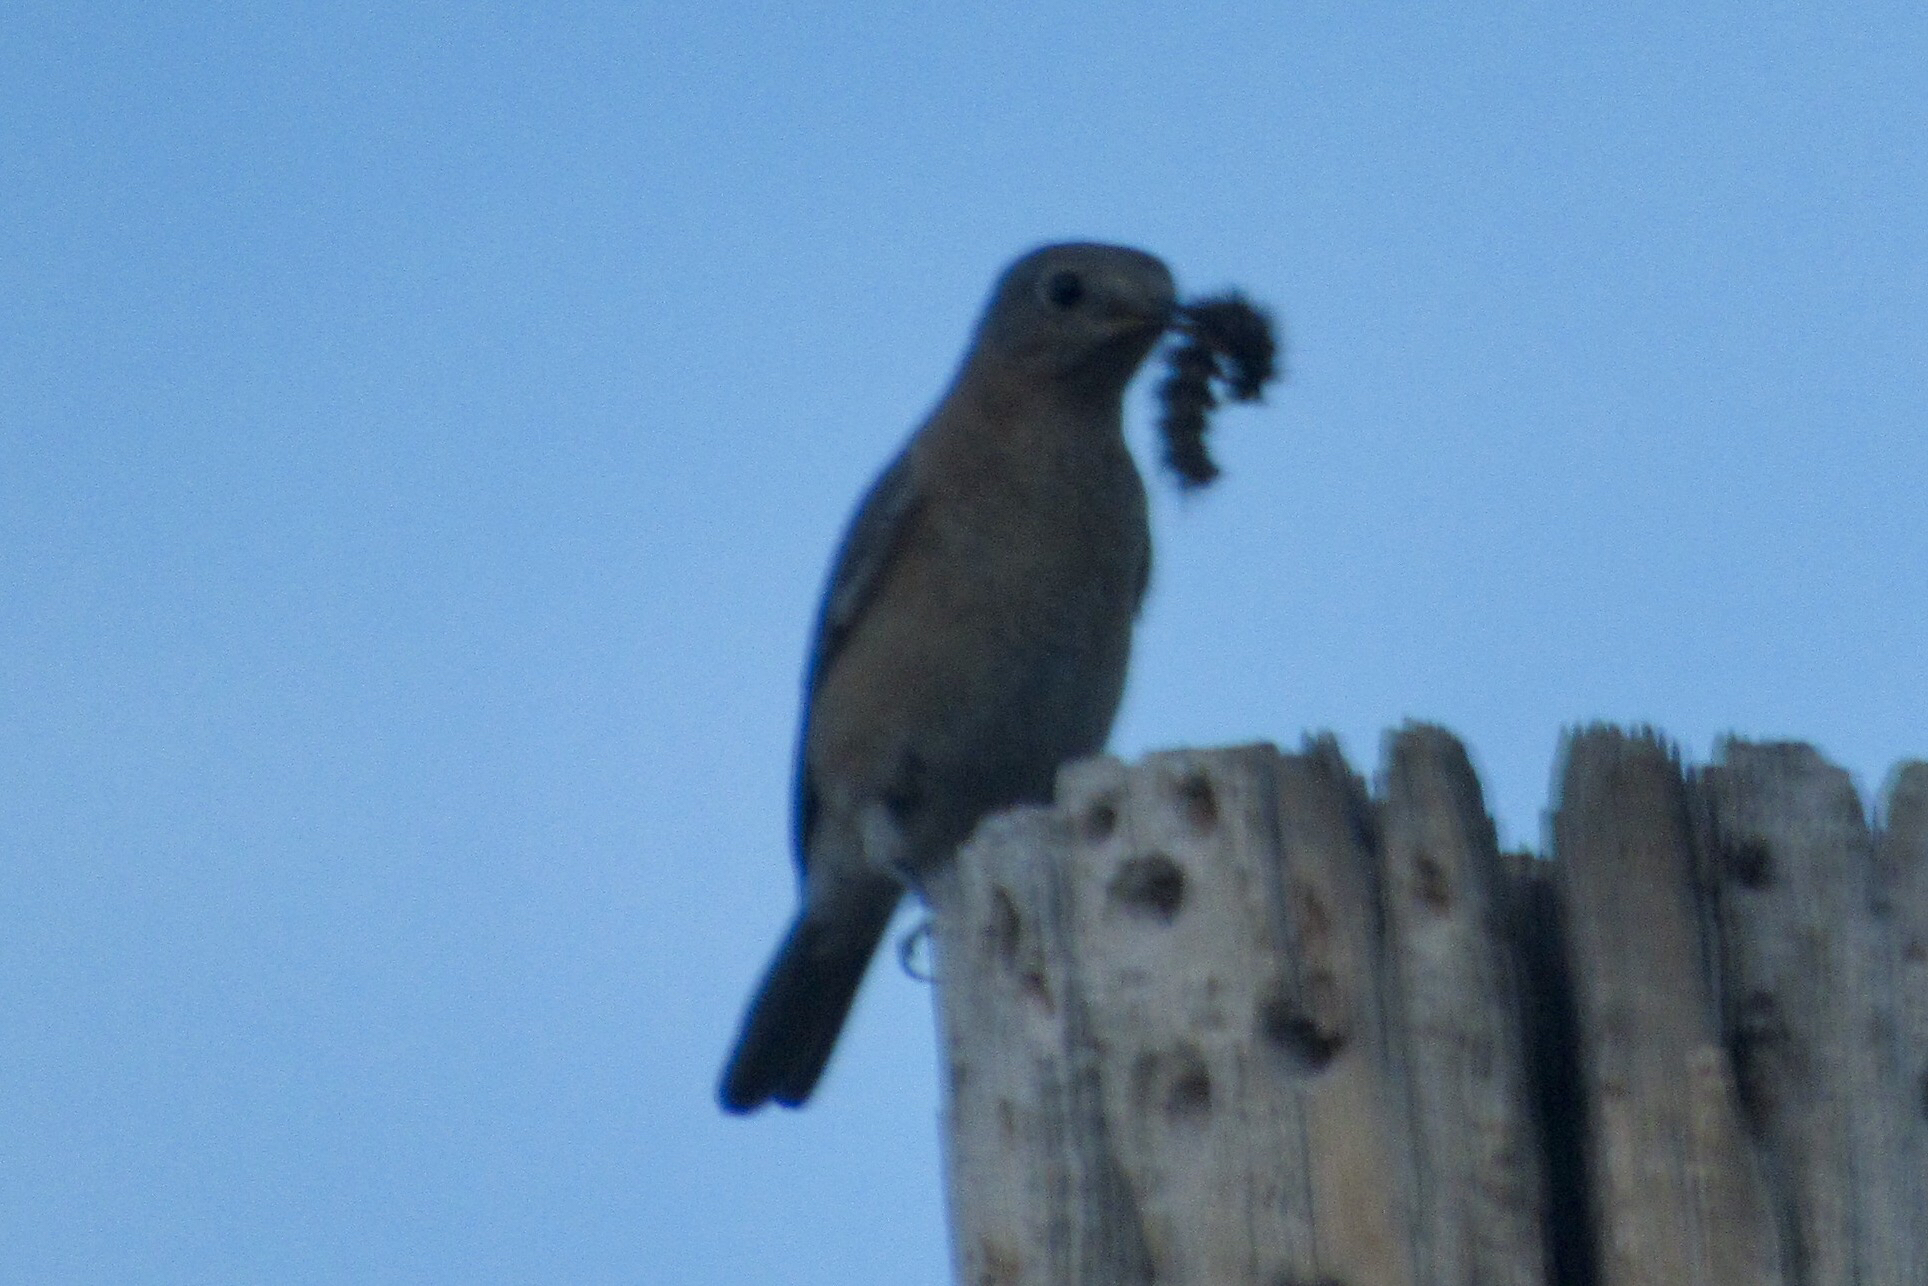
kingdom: Animalia
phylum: Chordata
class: Aves
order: Passeriformes
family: Turdidae
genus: Sialia
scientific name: Sialia mexicana
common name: Western bluebird
